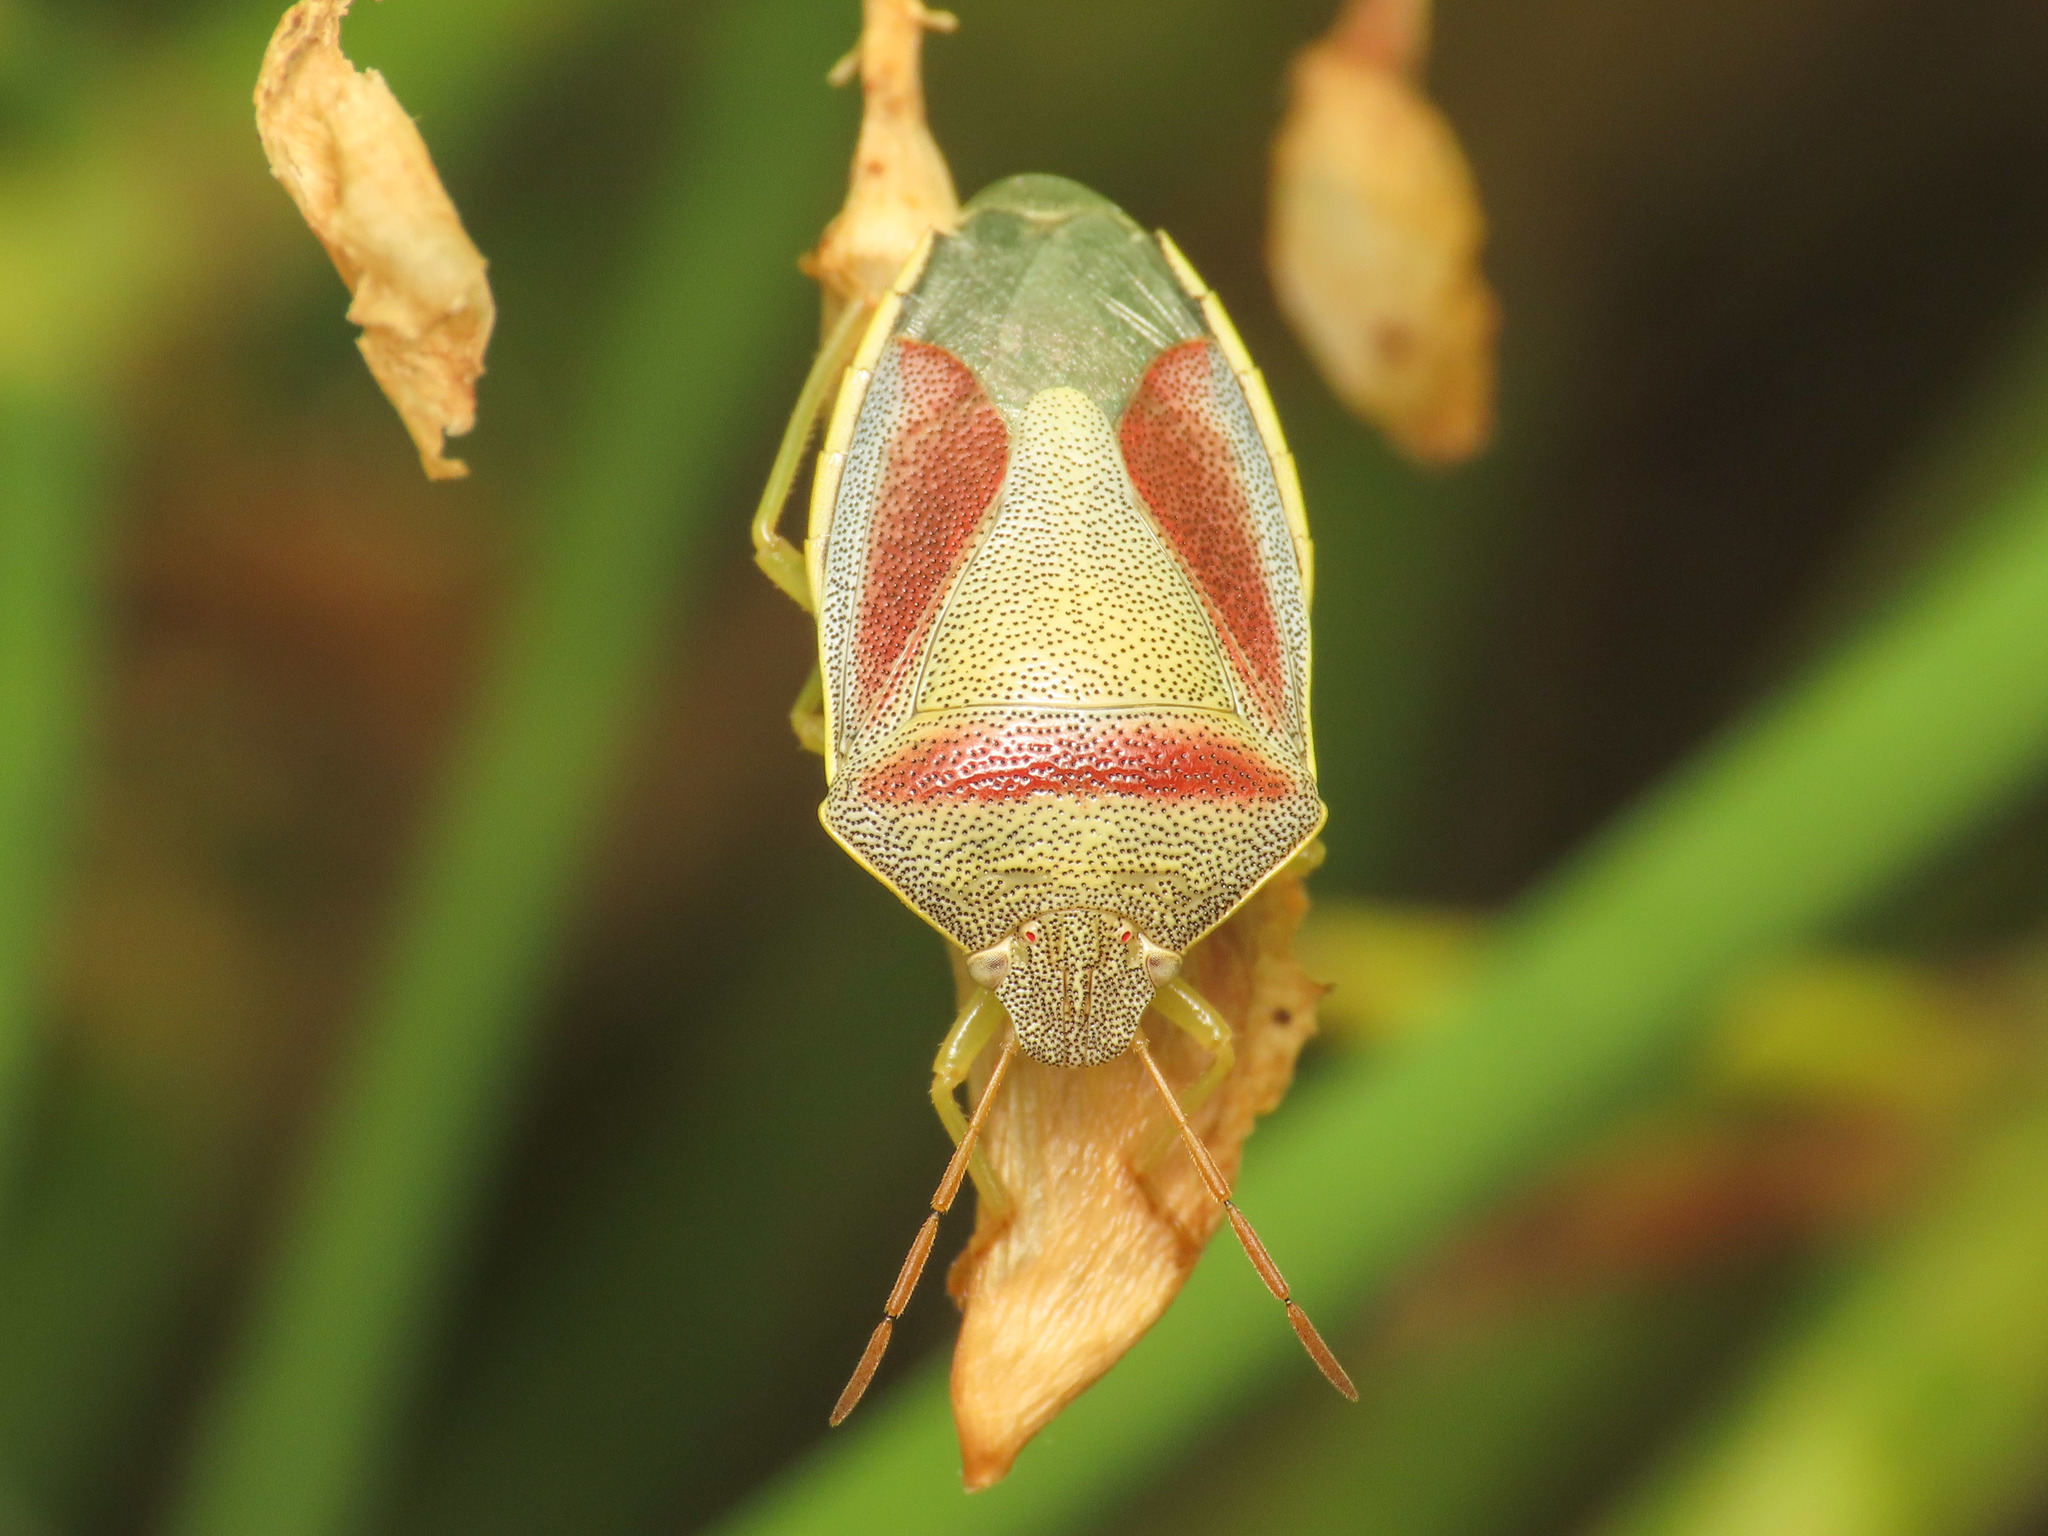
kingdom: Animalia
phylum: Arthropoda
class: Insecta
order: Hemiptera
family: Pentatomidae
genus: Piezodorus
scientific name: Piezodorus lituratus
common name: Stink bug
